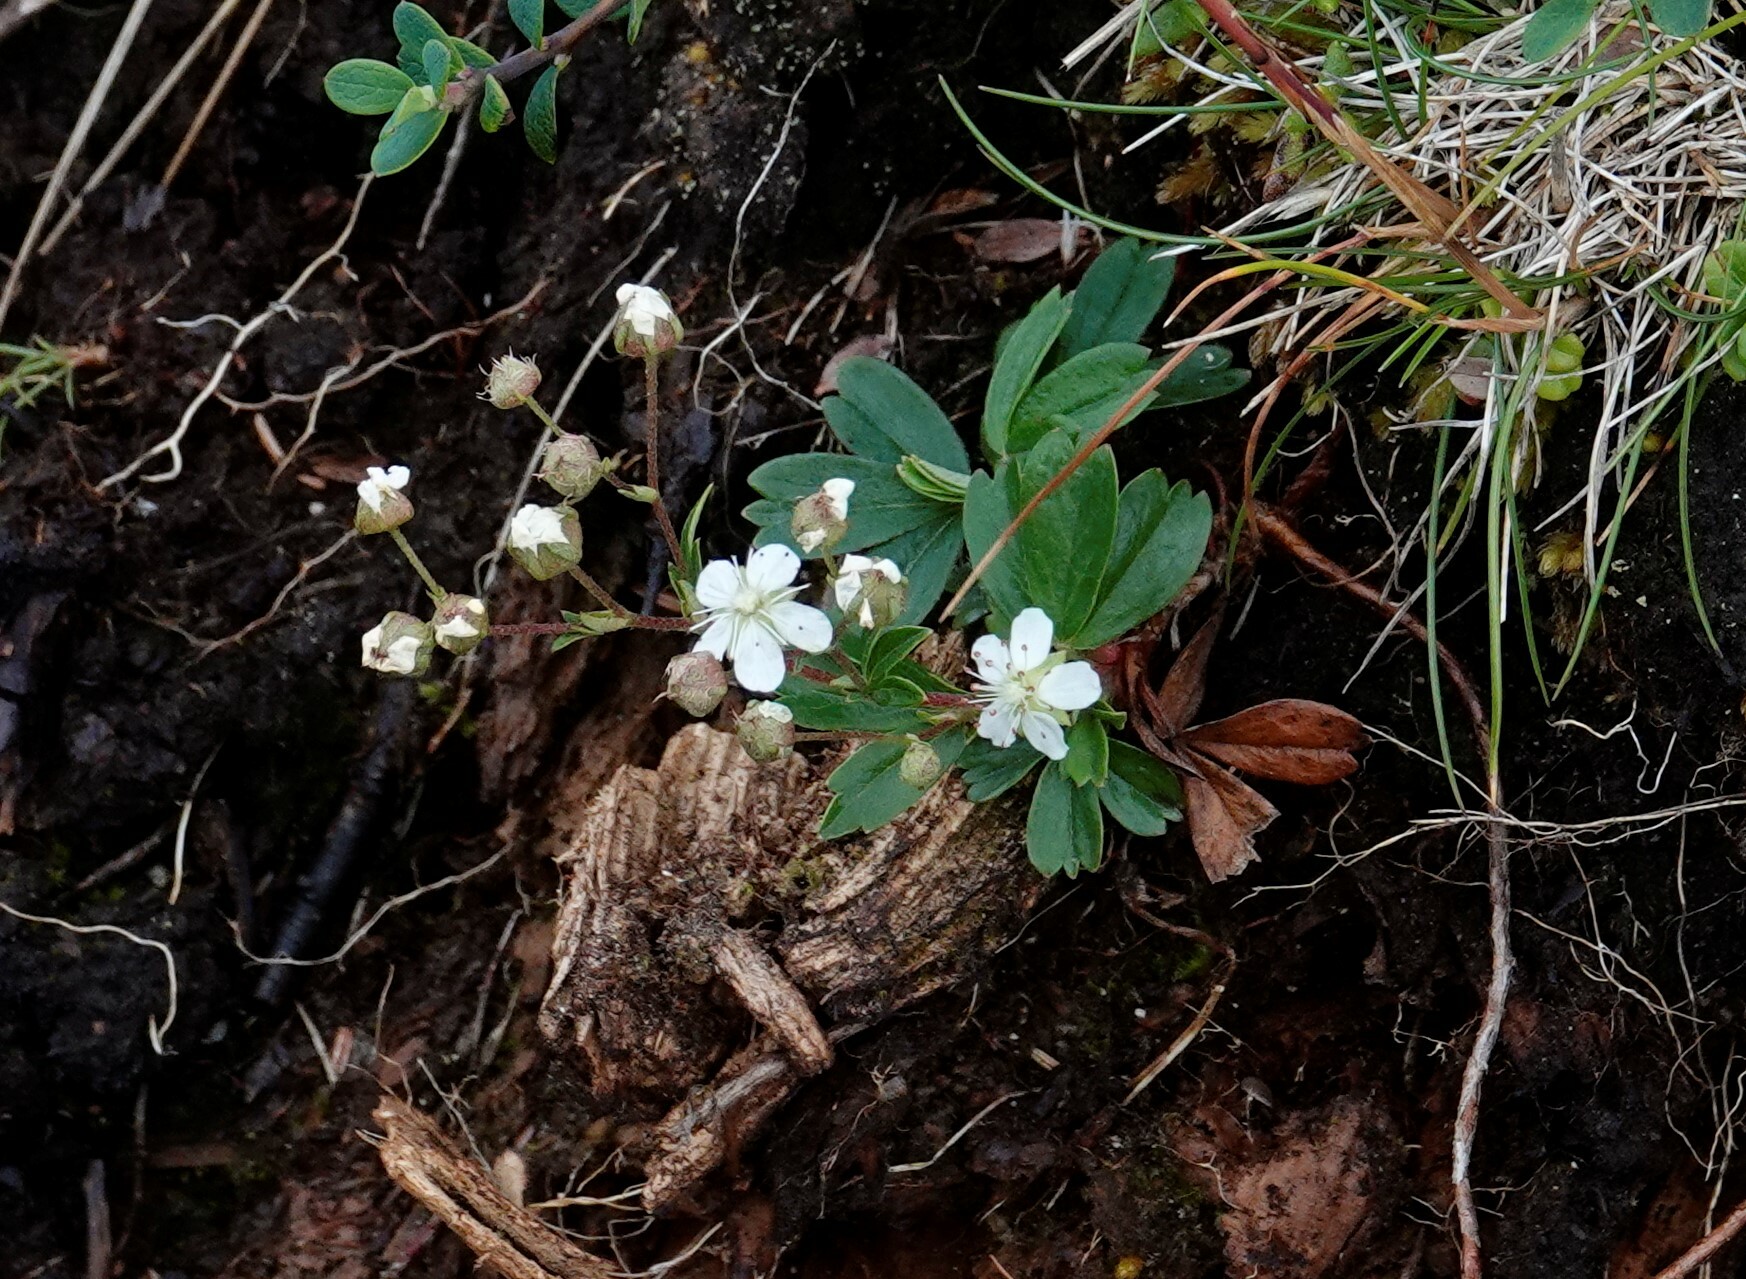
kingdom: Plantae
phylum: Tracheophyta
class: Magnoliopsida
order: Rosales
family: Rosaceae
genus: Sibbaldia
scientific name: Sibbaldia tridentata
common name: Three-toothed cinquefoil
